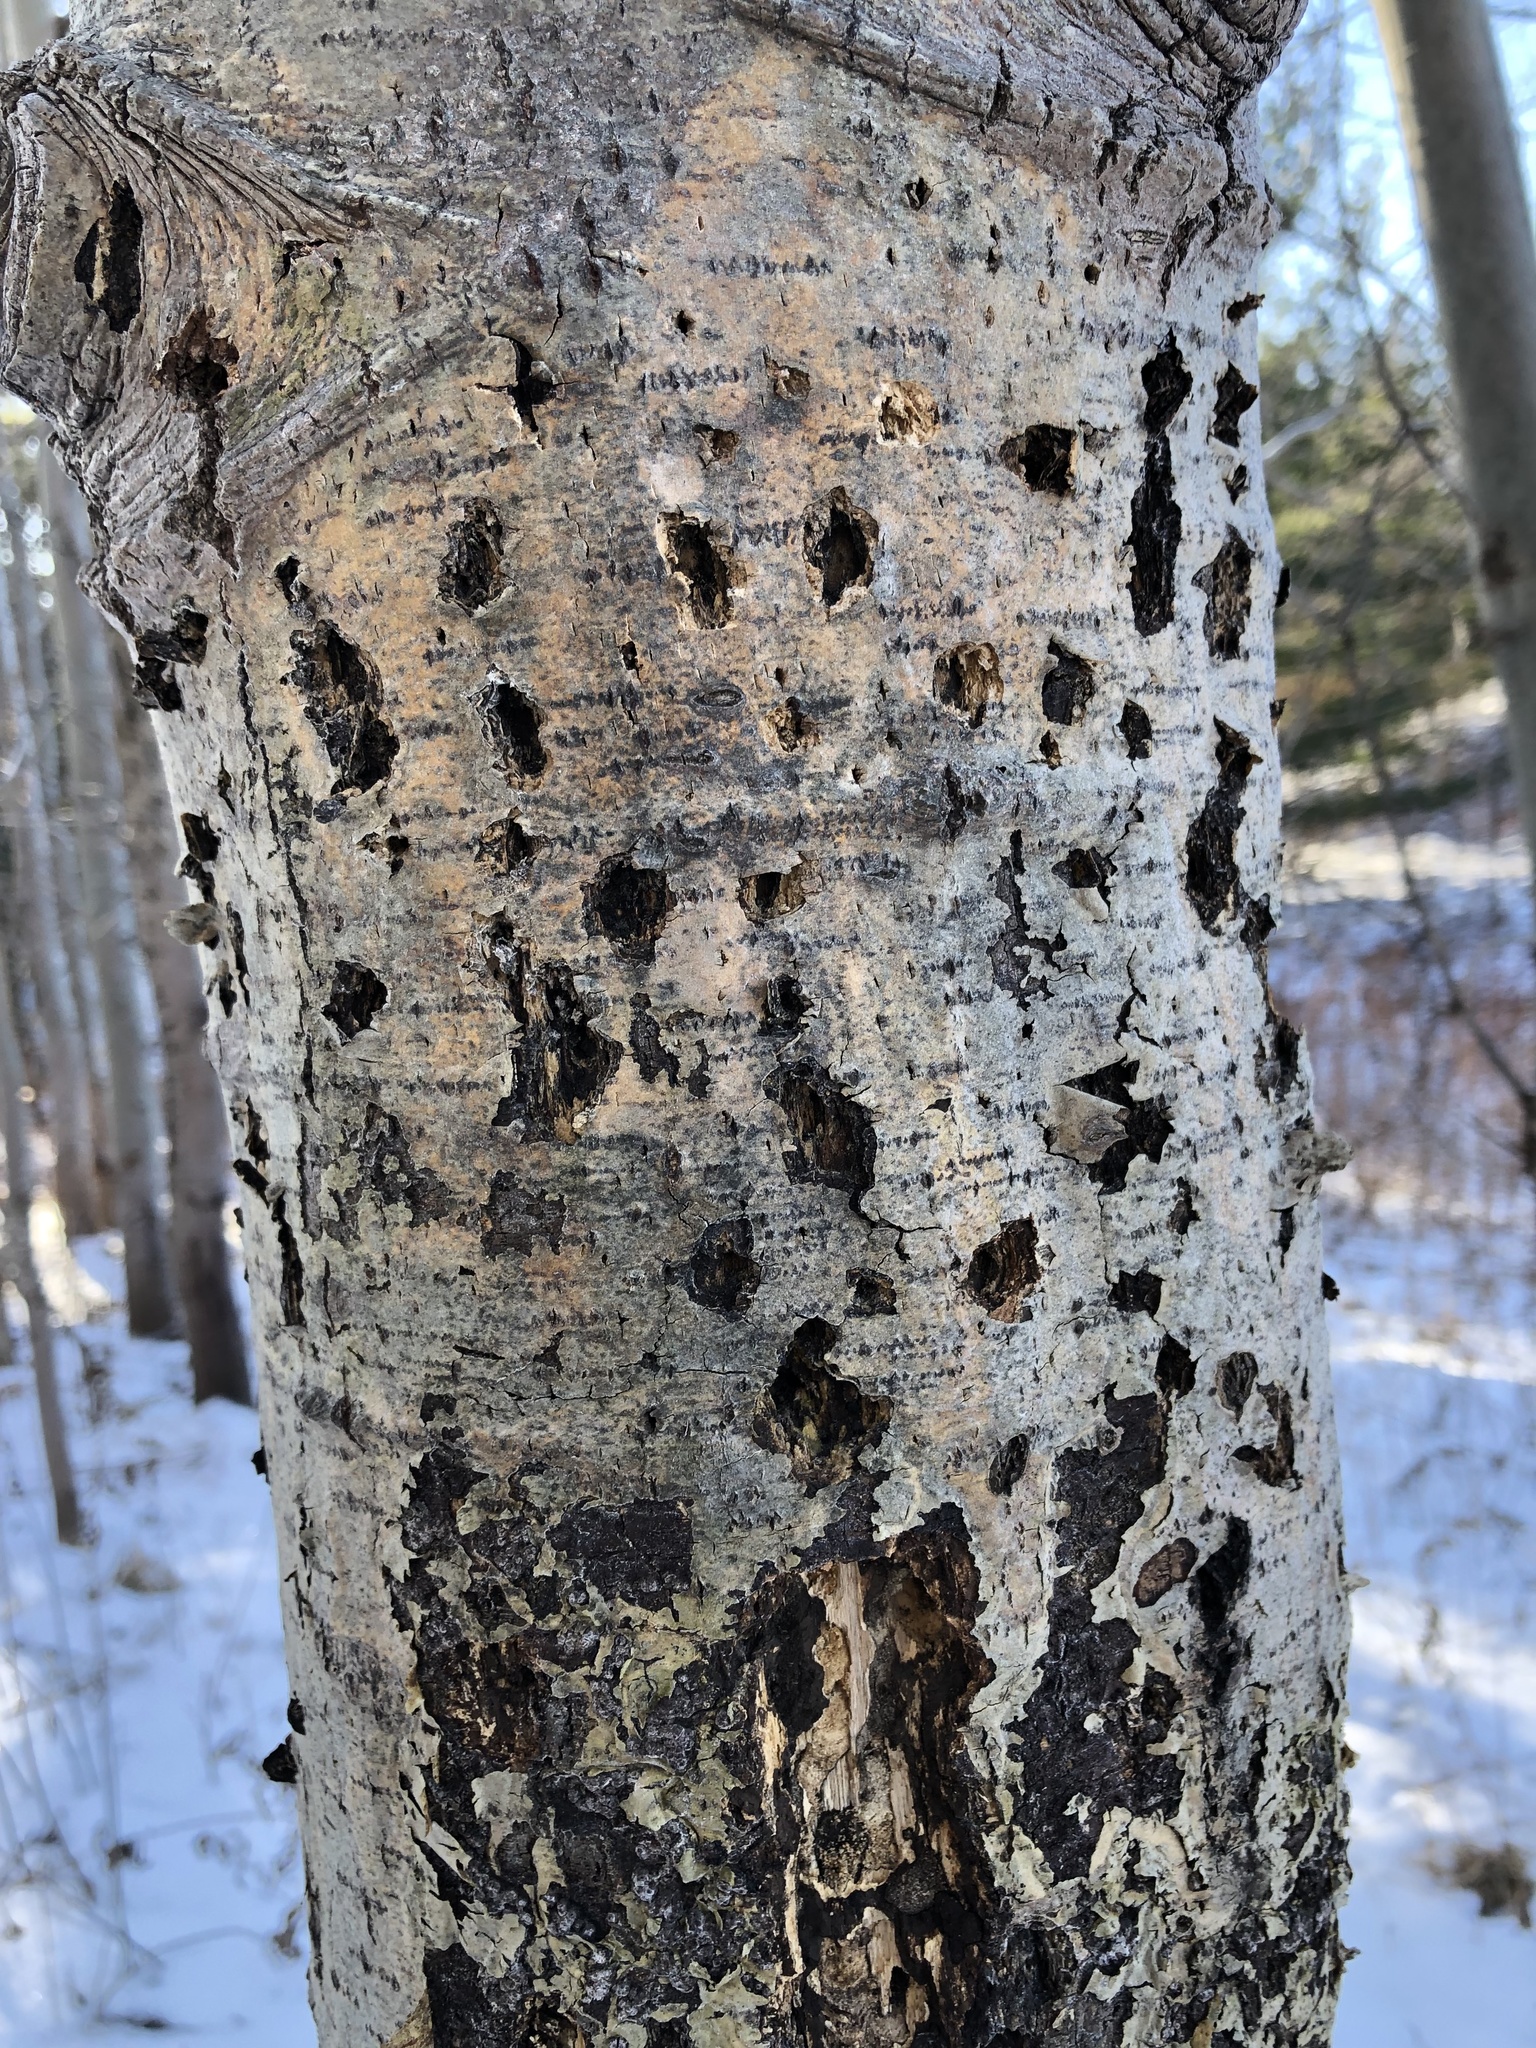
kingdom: Animalia
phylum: Chordata
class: Aves
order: Piciformes
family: Picidae
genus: Sphyrapicus
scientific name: Sphyrapicus varius
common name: Yellow-bellied sapsucker
